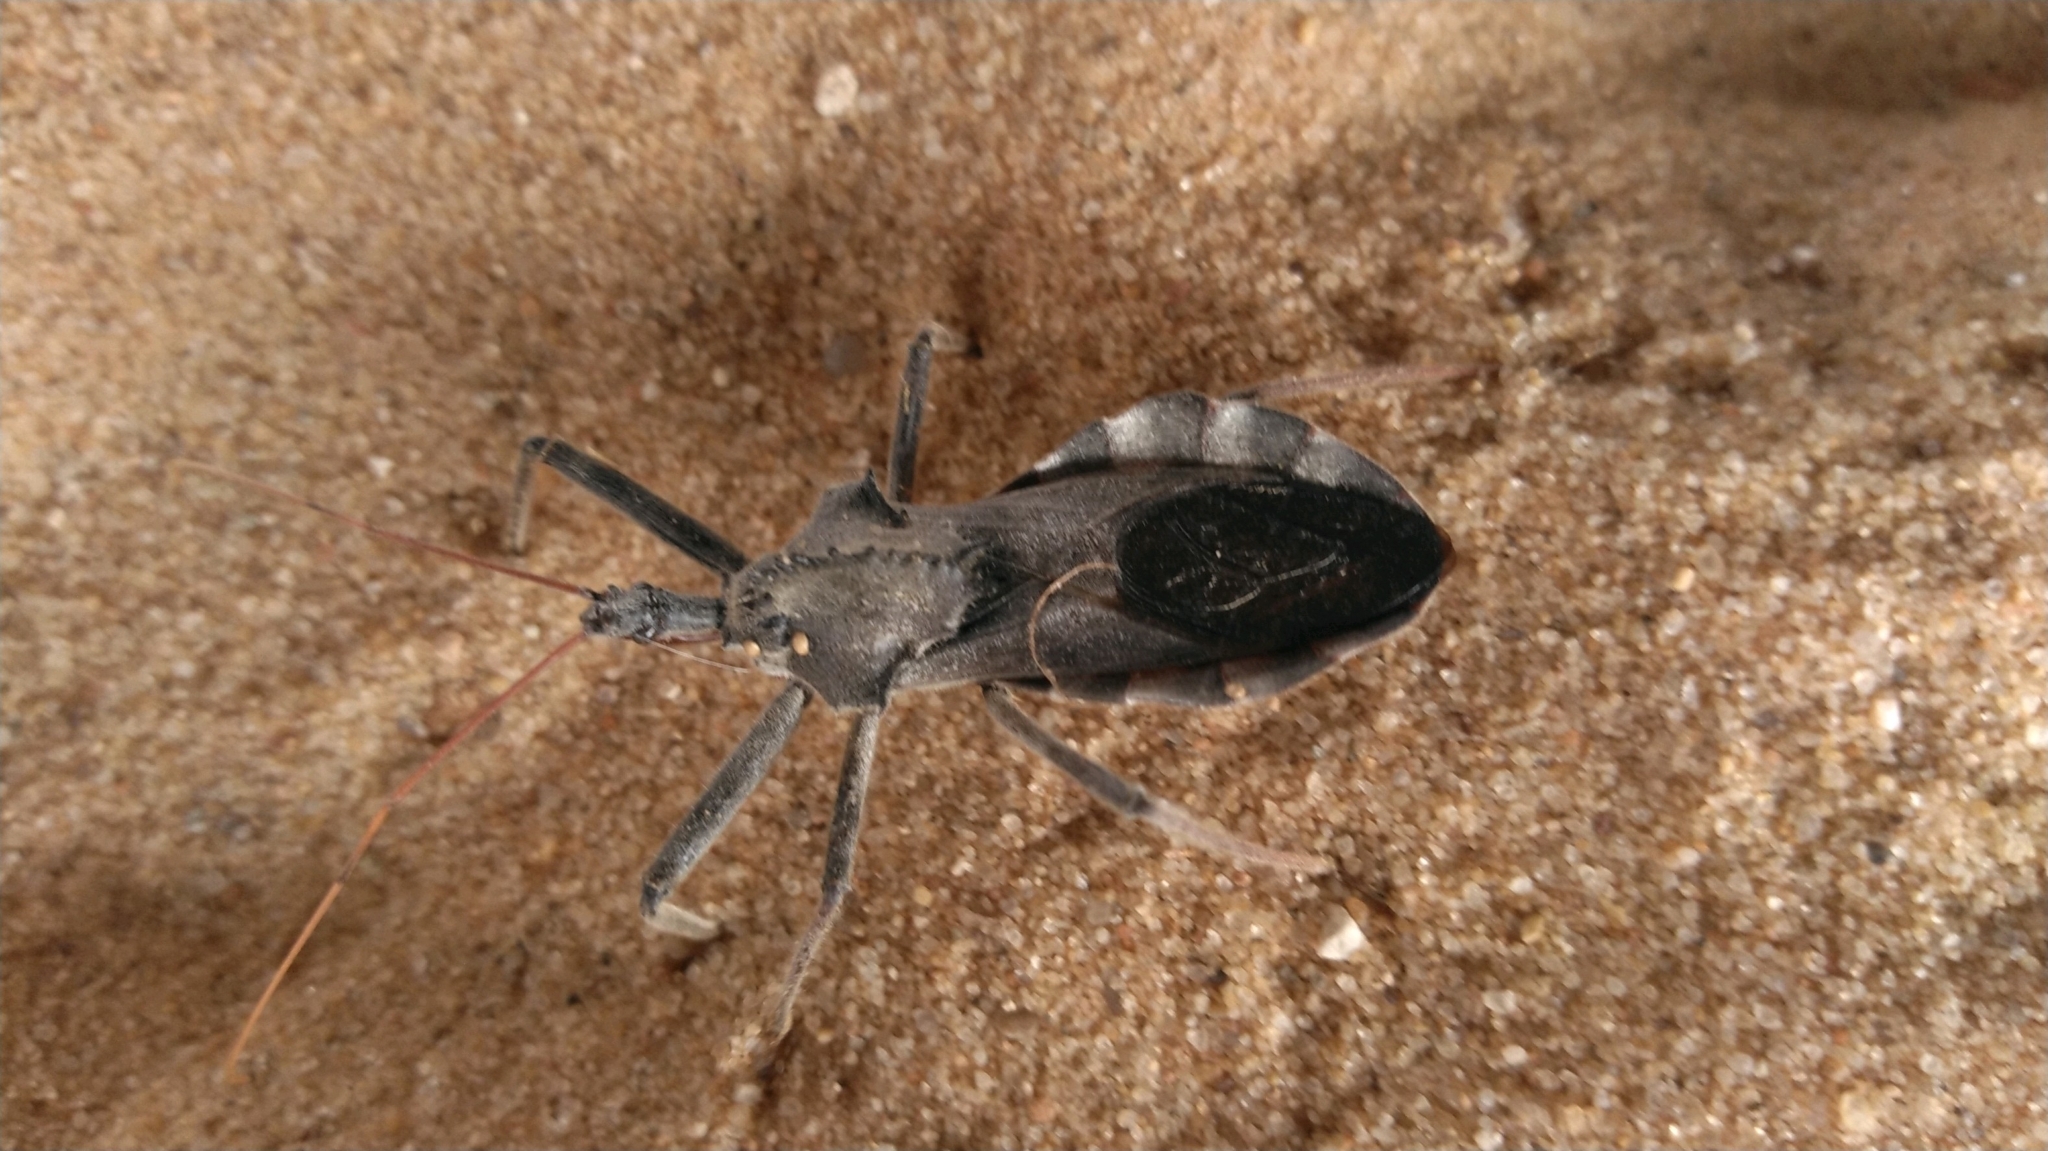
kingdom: Animalia
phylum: Arthropoda
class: Insecta
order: Hemiptera
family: Reduviidae
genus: Arilus
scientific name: Arilus cristatus
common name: North american wheel bug
